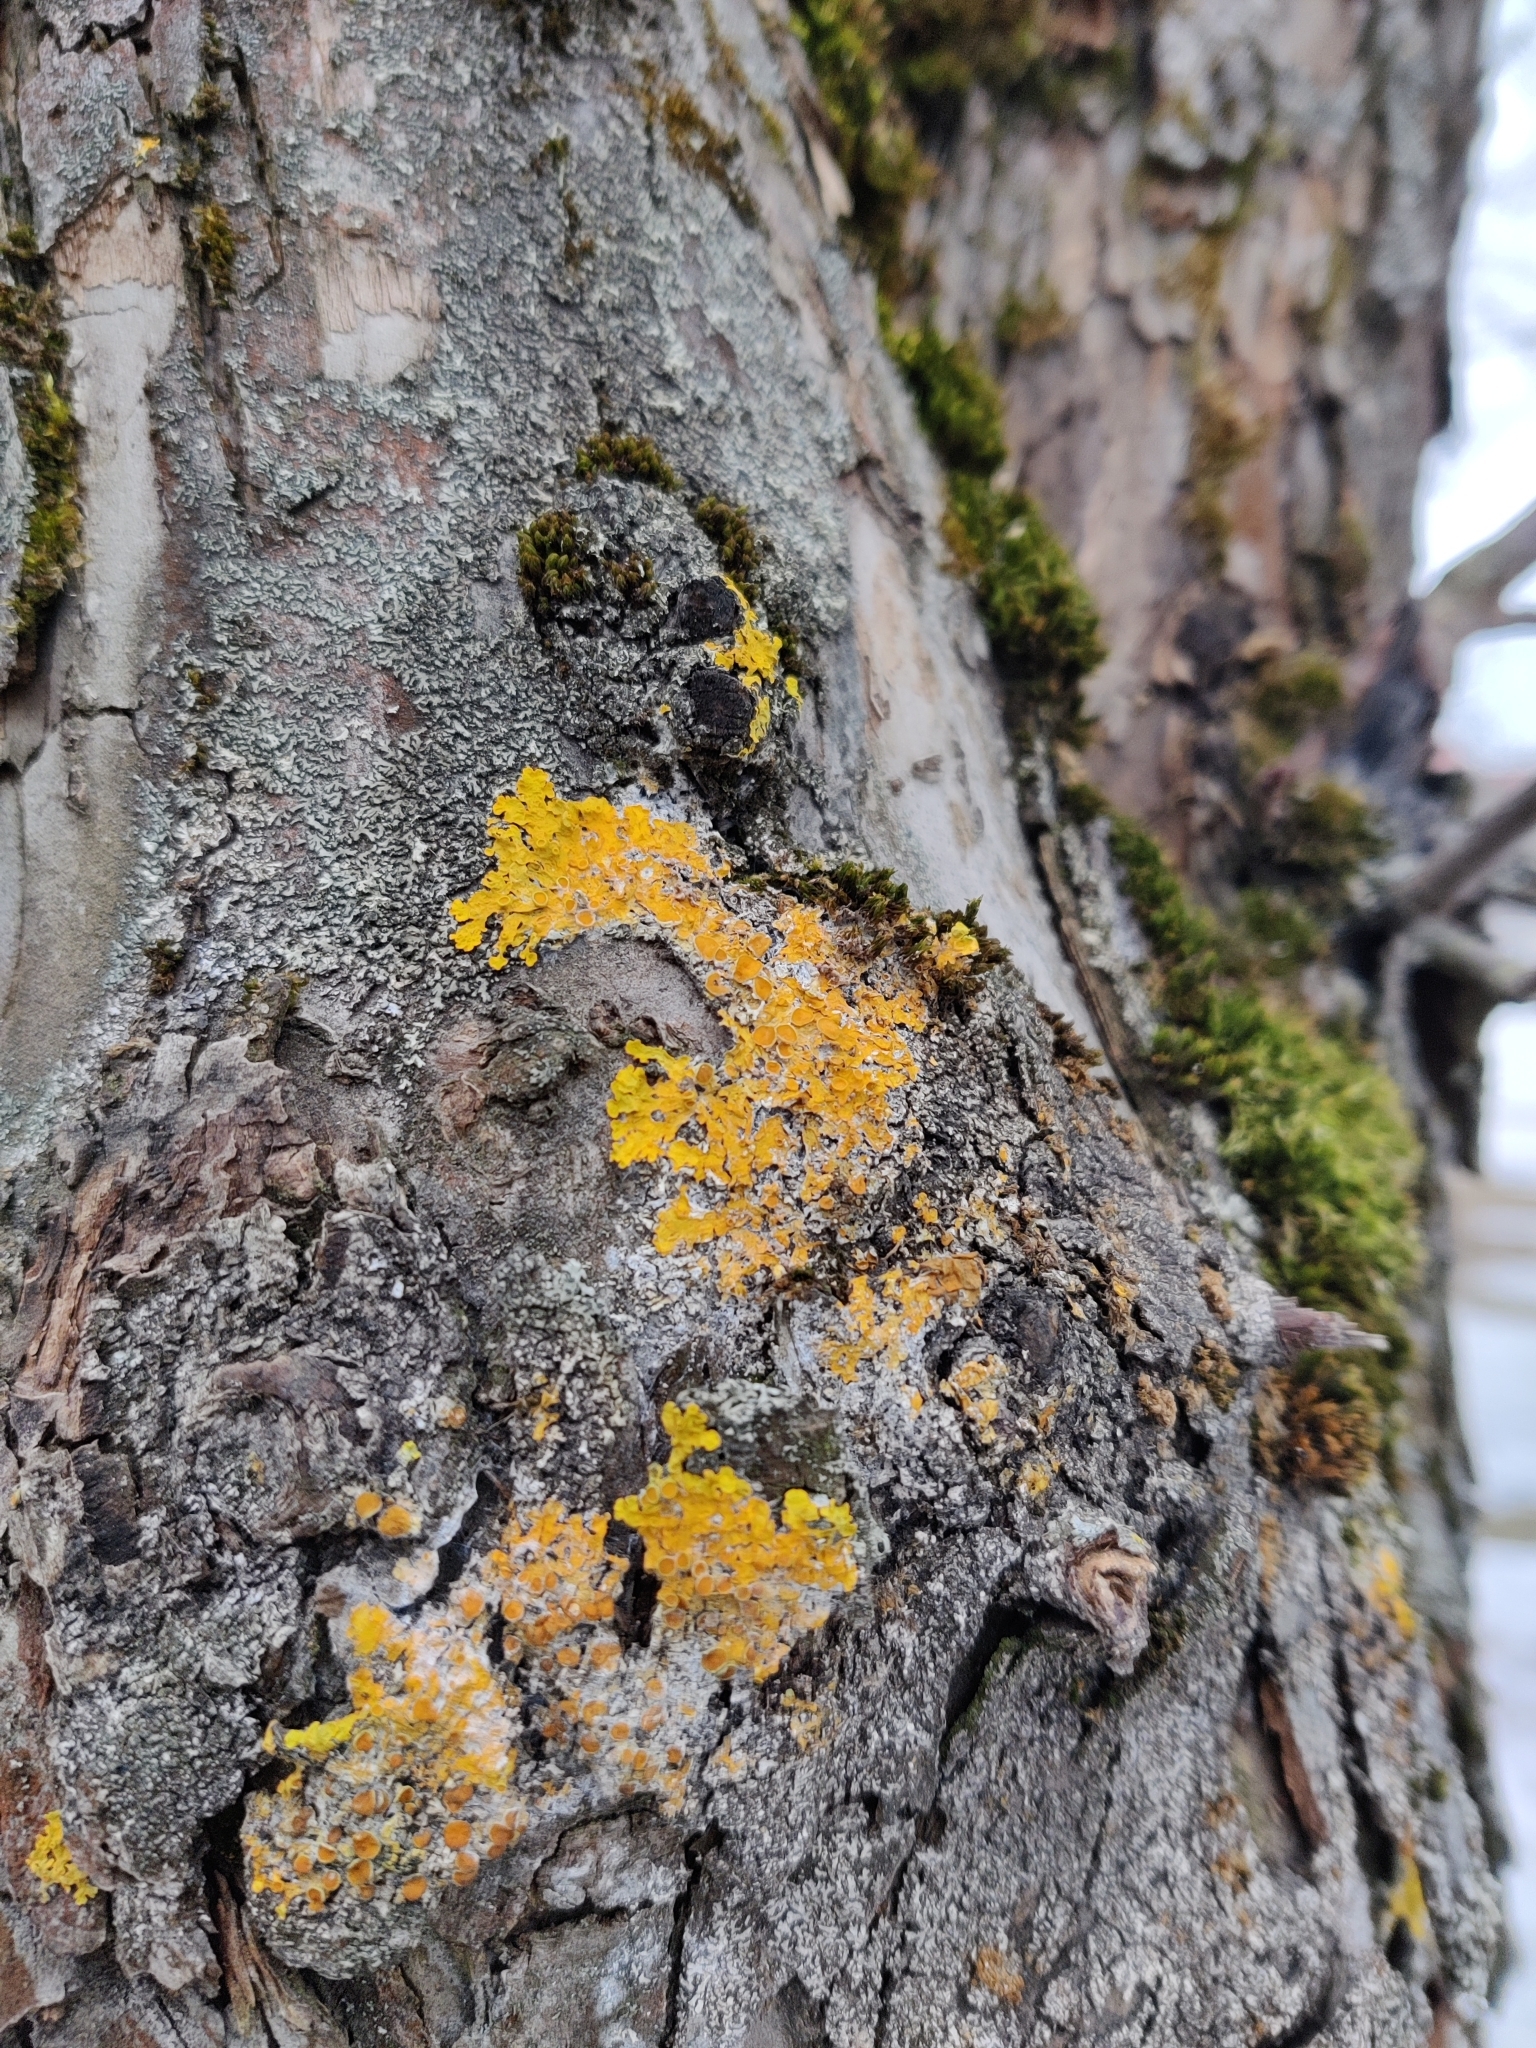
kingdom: Fungi
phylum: Ascomycota
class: Lecanoromycetes
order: Teloschistales
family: Teloschistaceae
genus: Xanthoria
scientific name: Xanthoria parietina
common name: Common orange lichen
